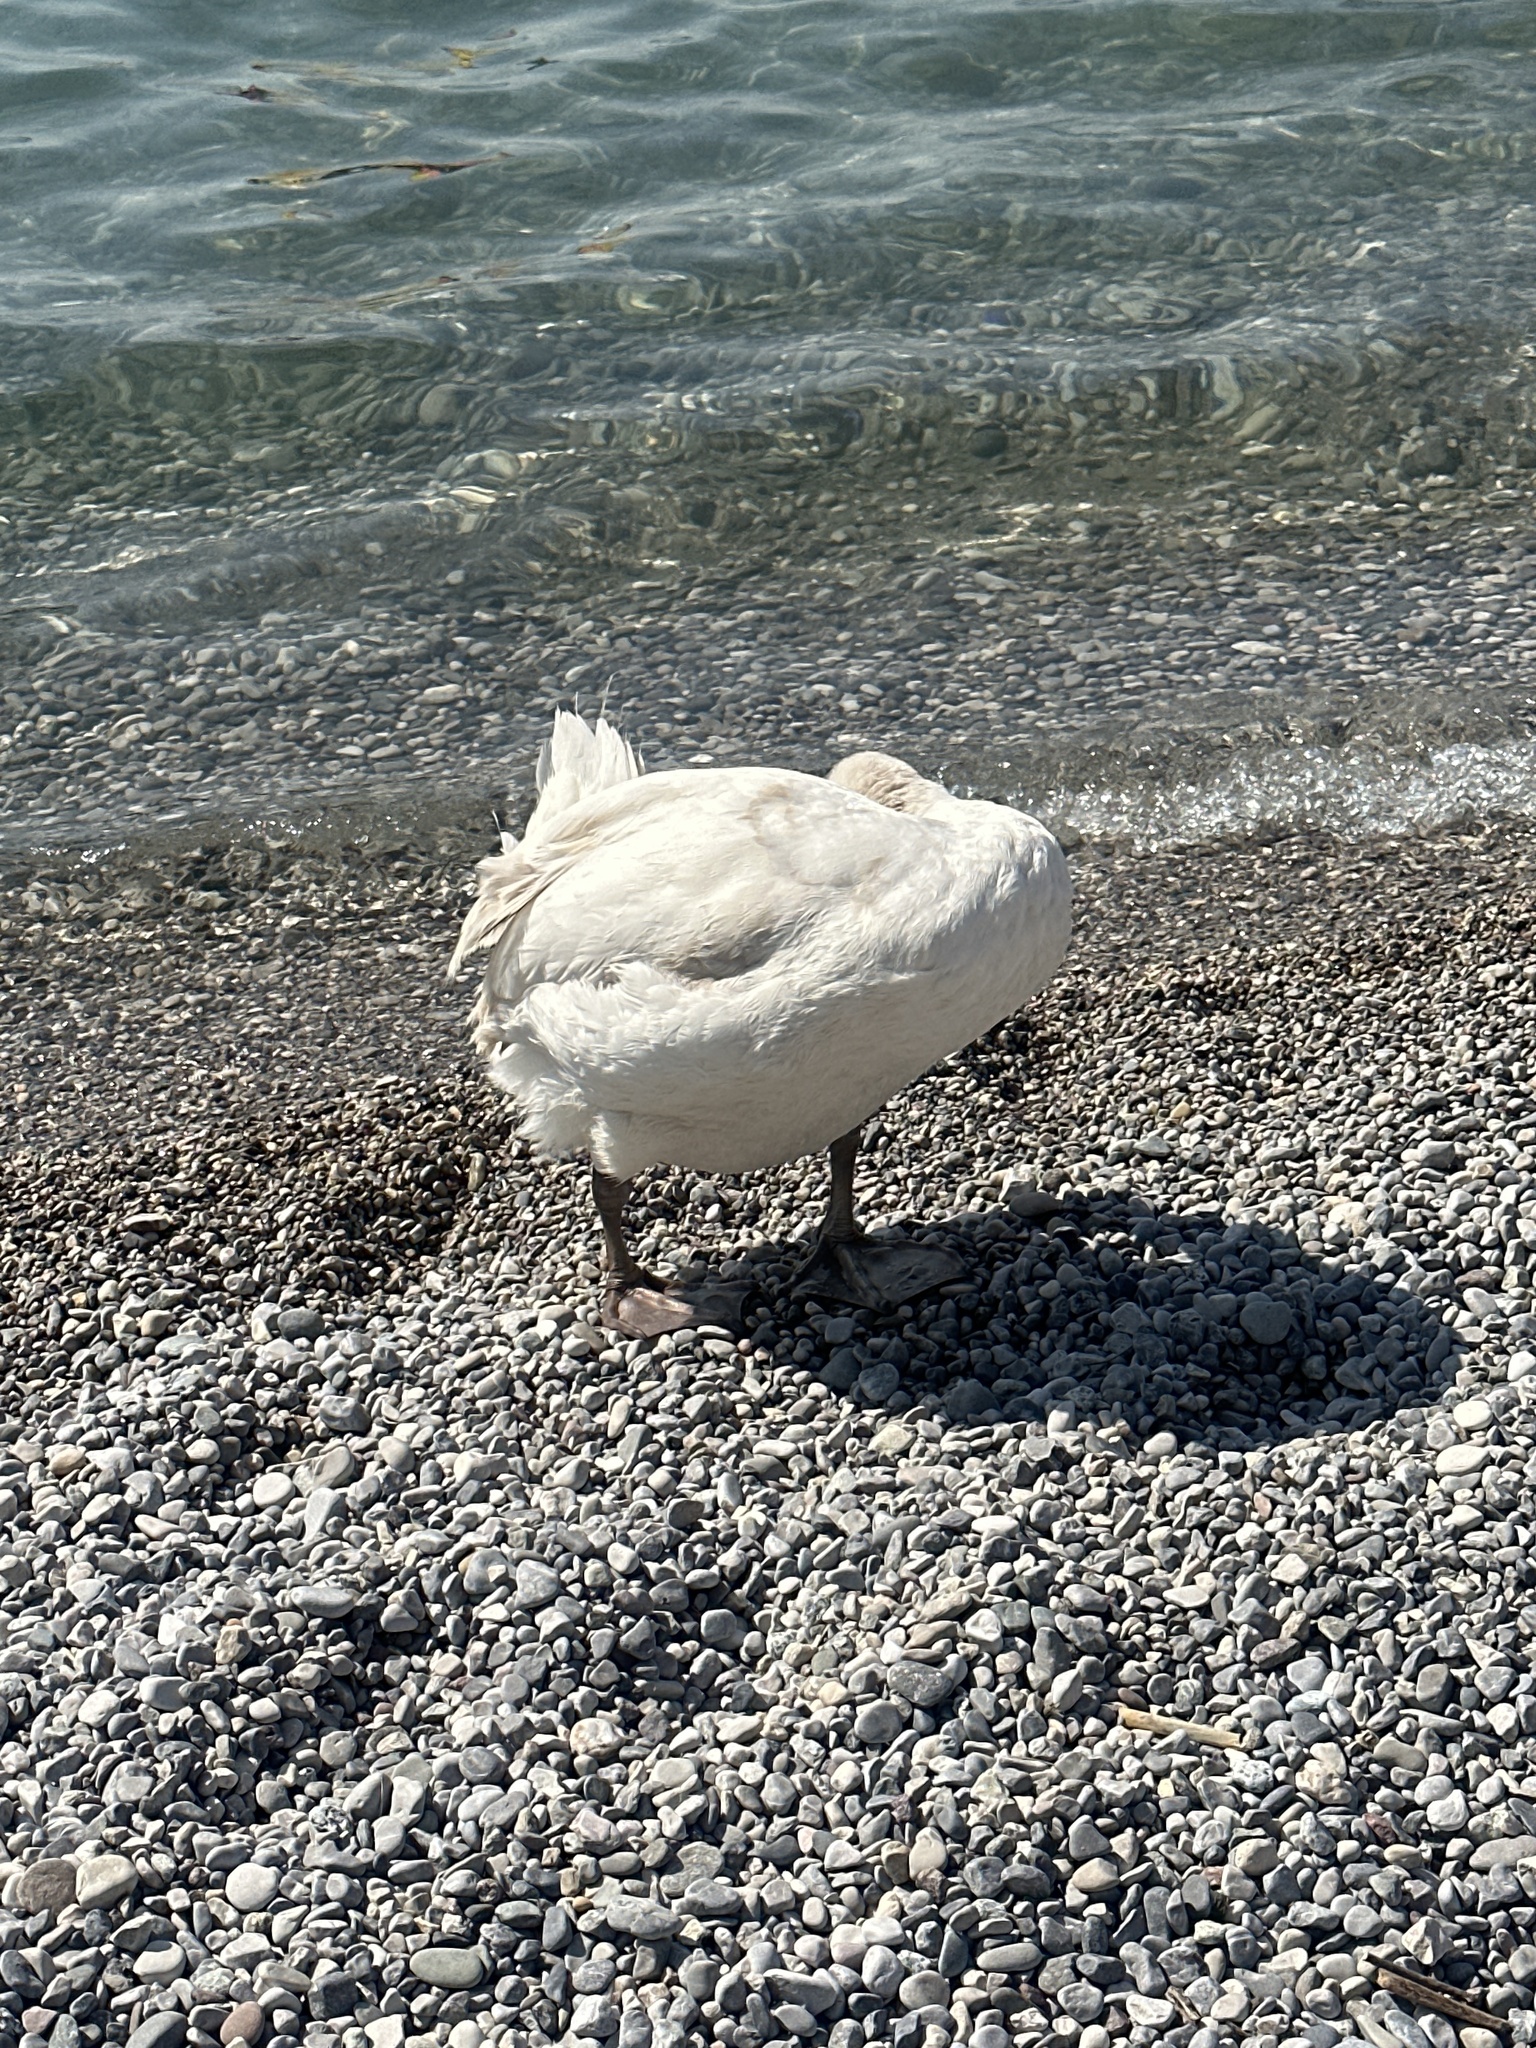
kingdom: Animalia
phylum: Chordata
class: Aves
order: Anseriformes
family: Anatidae
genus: Cygnus
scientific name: Cygnus olor
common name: Mute swan
